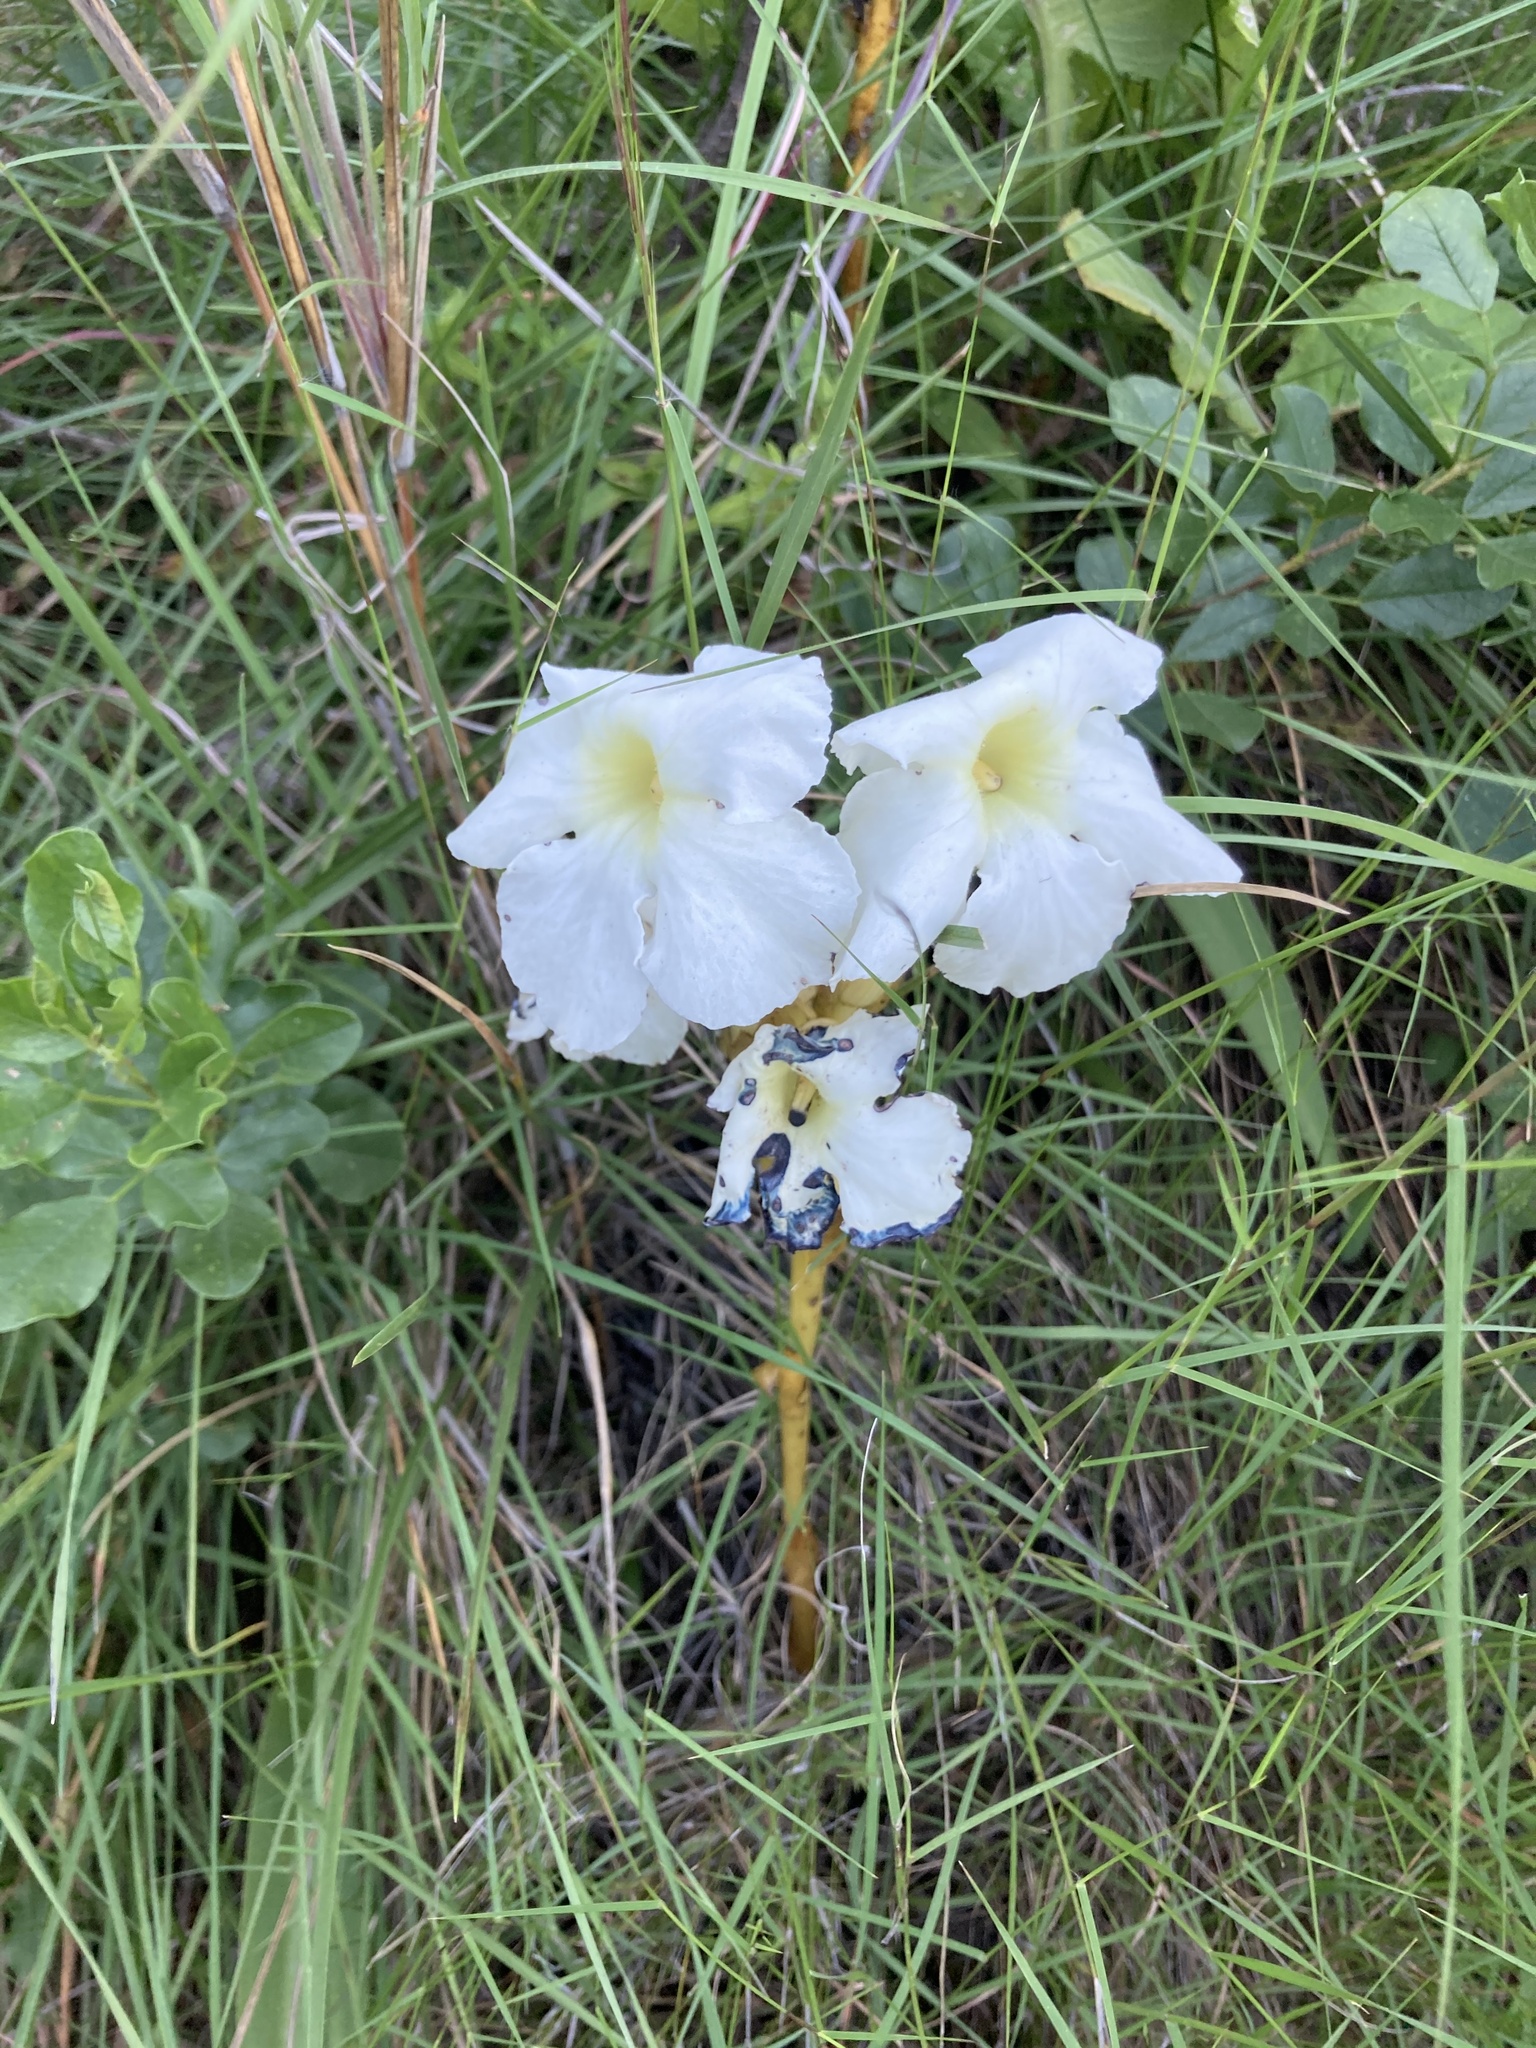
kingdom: Plantae
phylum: Tracheophyta
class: Magnoliopsida
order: Lamiales
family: Orobanchaceae
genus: Harveya
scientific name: Harveya speciosa
